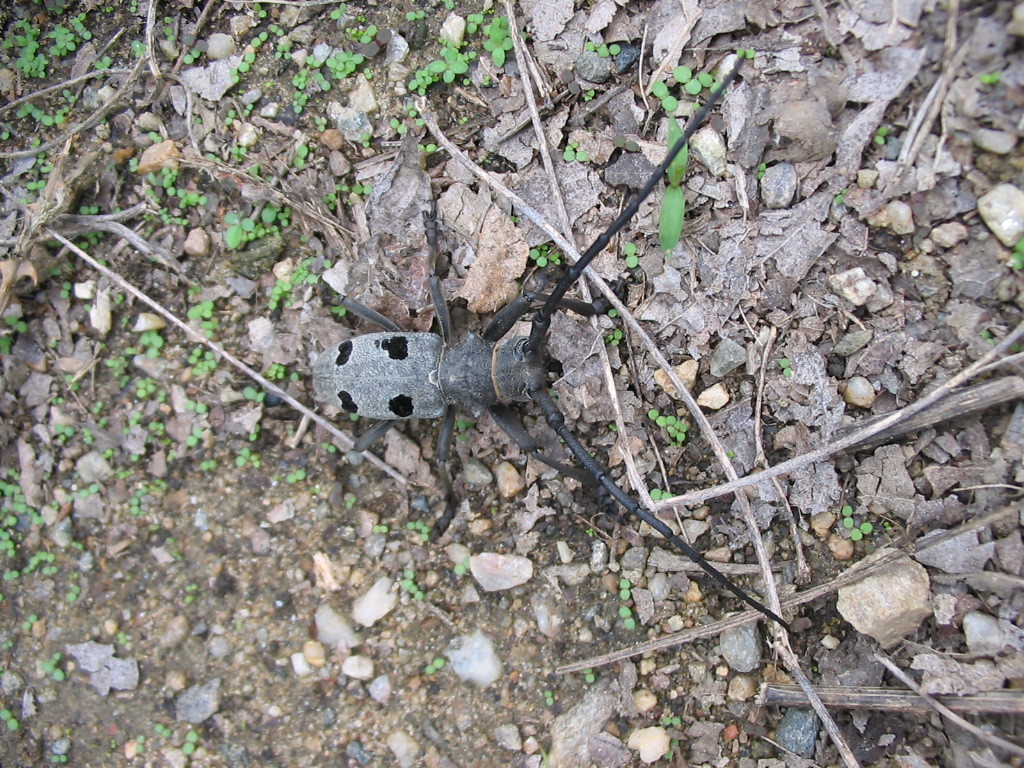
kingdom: Animalia
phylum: Arthropoda
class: Insecta
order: Coleoptera
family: Cerambycidae
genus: Morimus
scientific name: Morimus funereus
